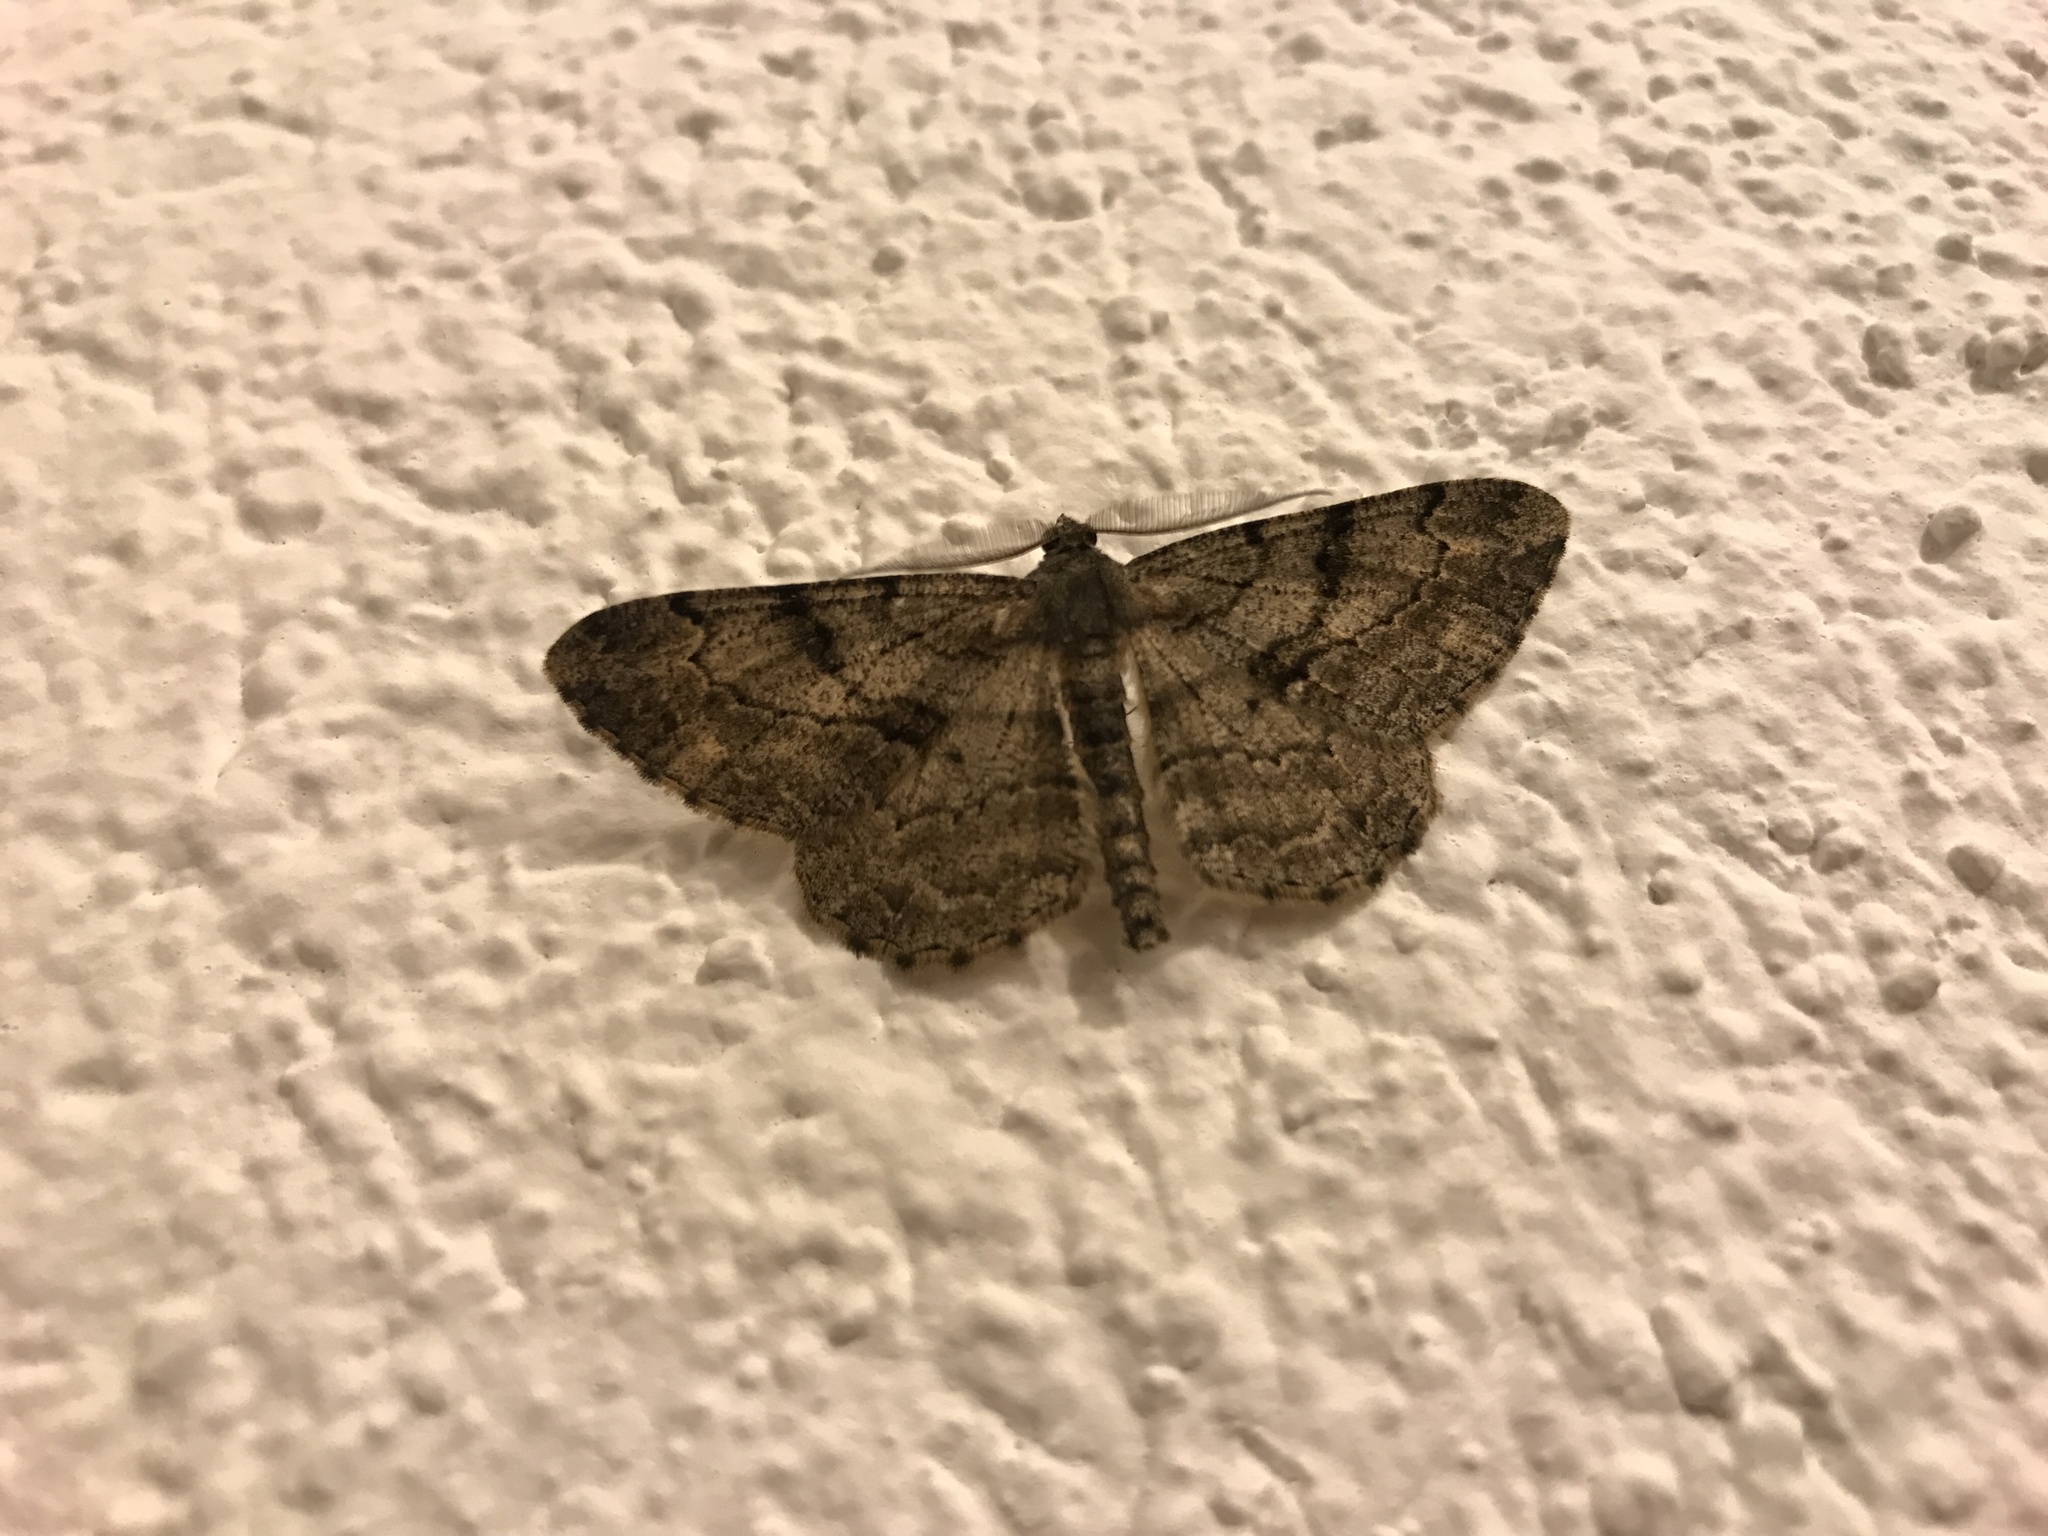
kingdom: Animalia
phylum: Arthropoda
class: Insecta
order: Lepidoptera
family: Geometridae
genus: Peribatodes
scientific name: Peribatodes rhomboidaria
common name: Willow beauty
